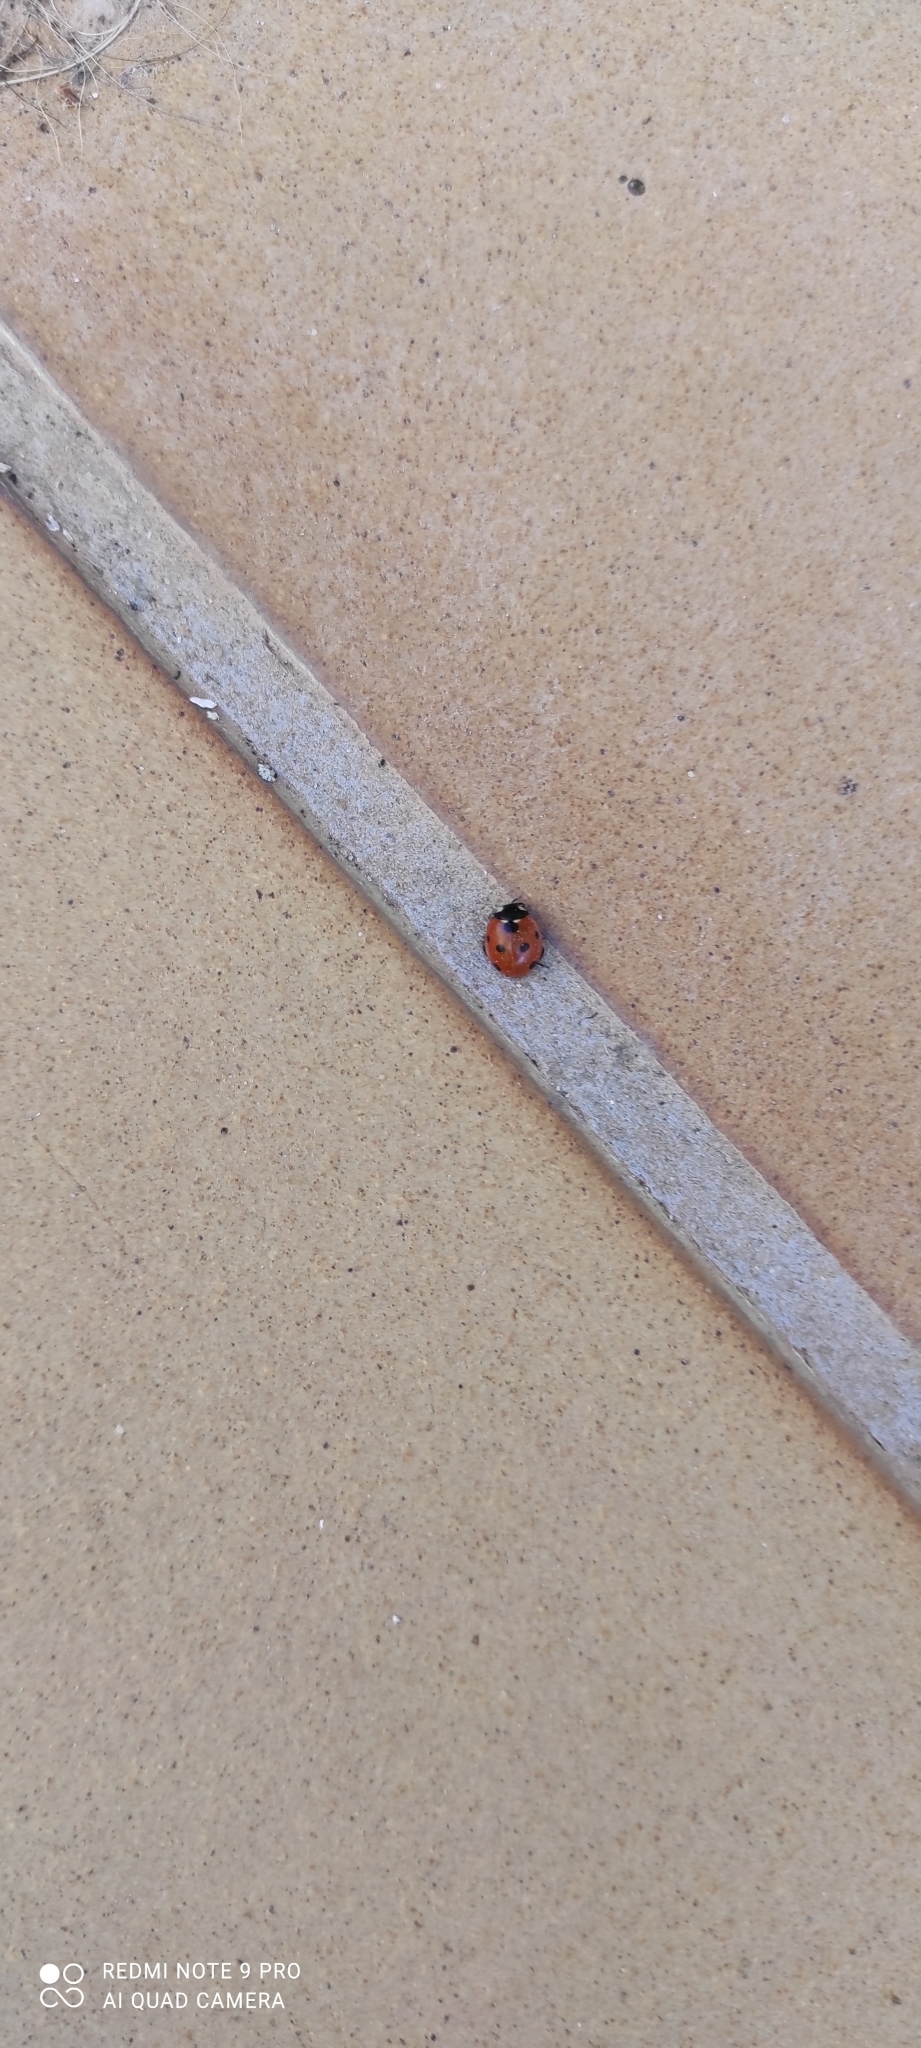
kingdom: Animalia
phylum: Arthropoda
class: Insecta
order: Coleoptera
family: Coccinellidae
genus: Coccinella
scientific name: Coccinella septempunctata
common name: Sevenspotted lady beetle
